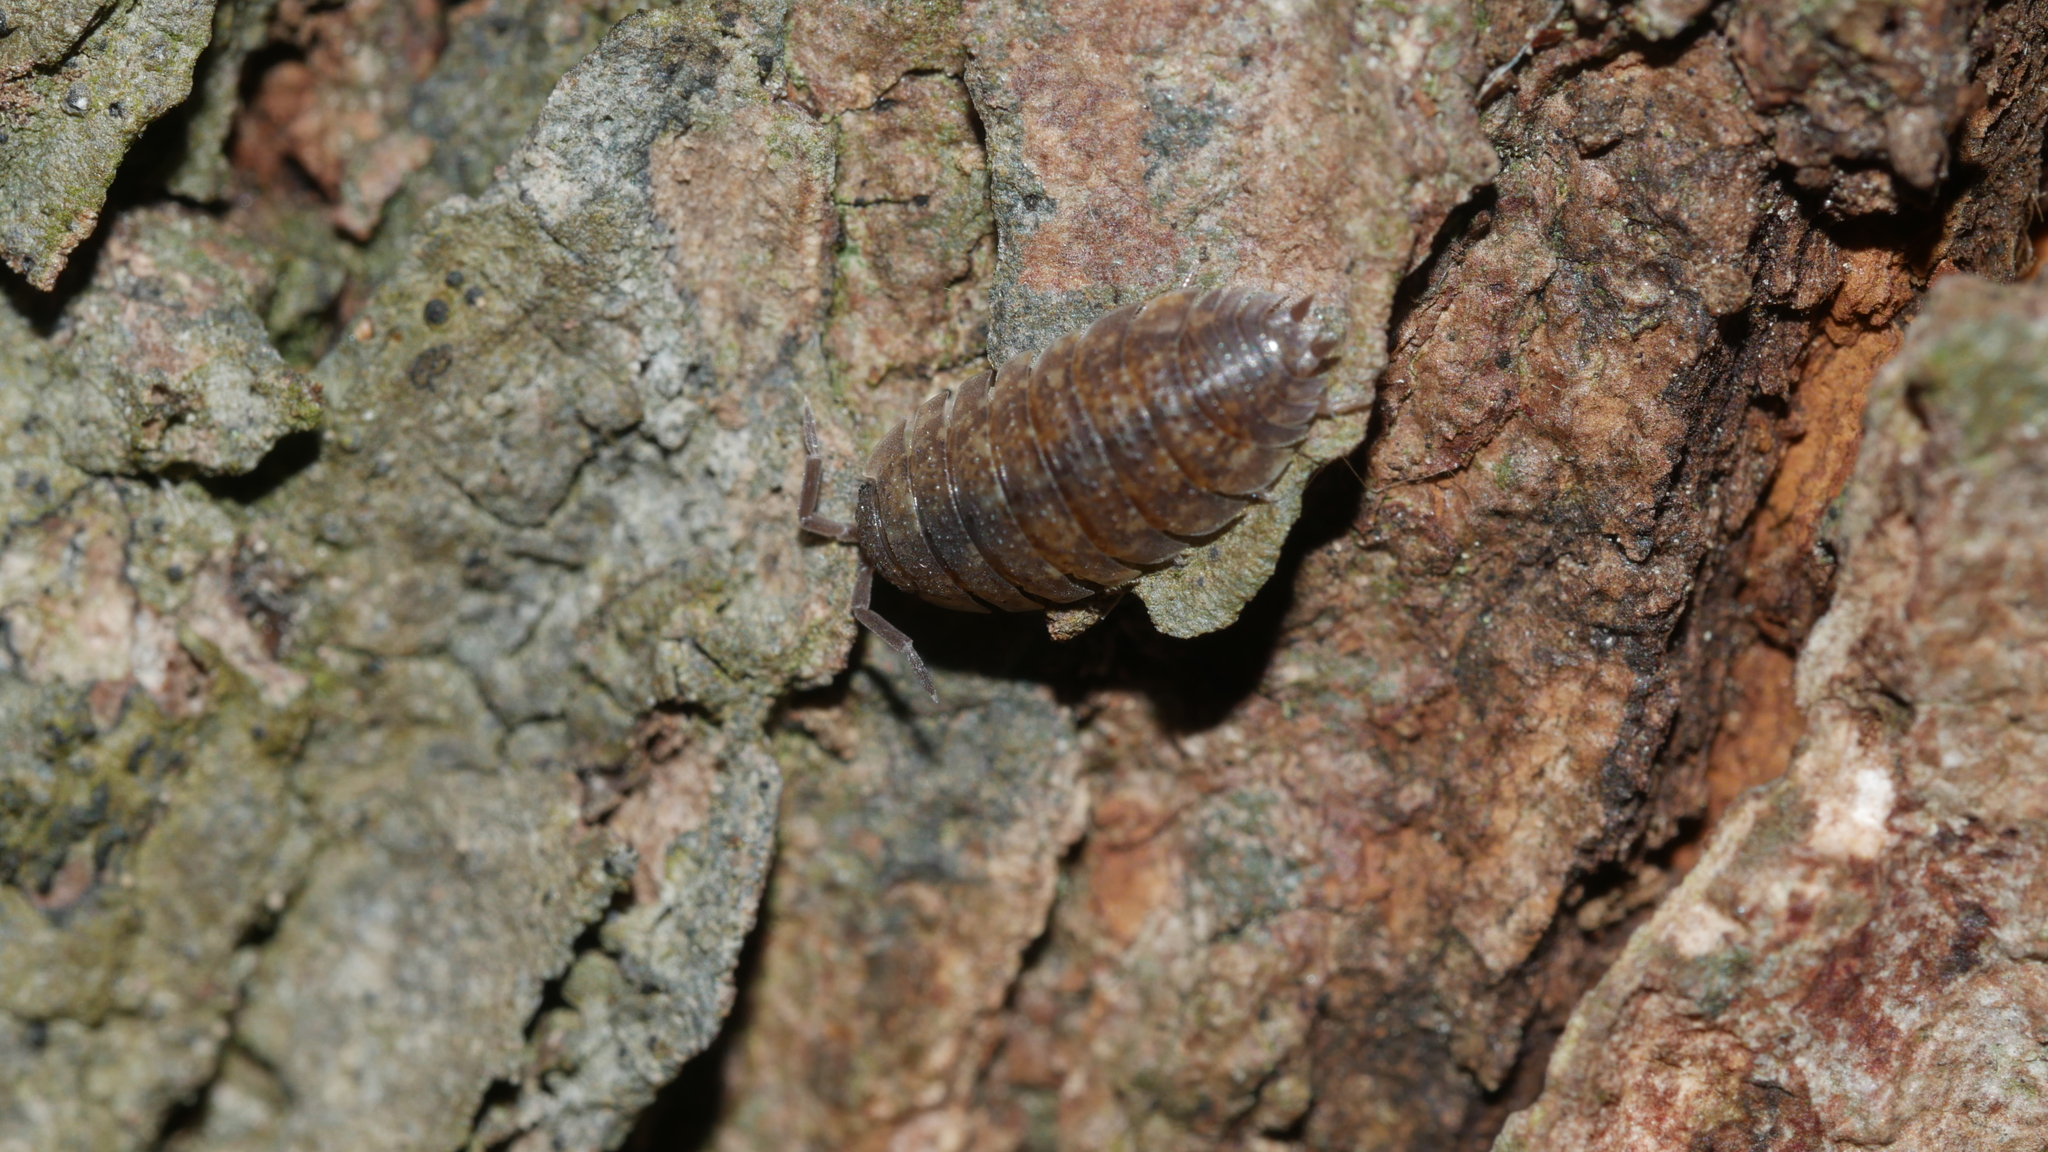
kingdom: Animalia
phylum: Arthropoda
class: Malacostraca
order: Isopoda
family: Porcellionidae
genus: Porcellio
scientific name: Porcellio scaber
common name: Common rough woodlouse
